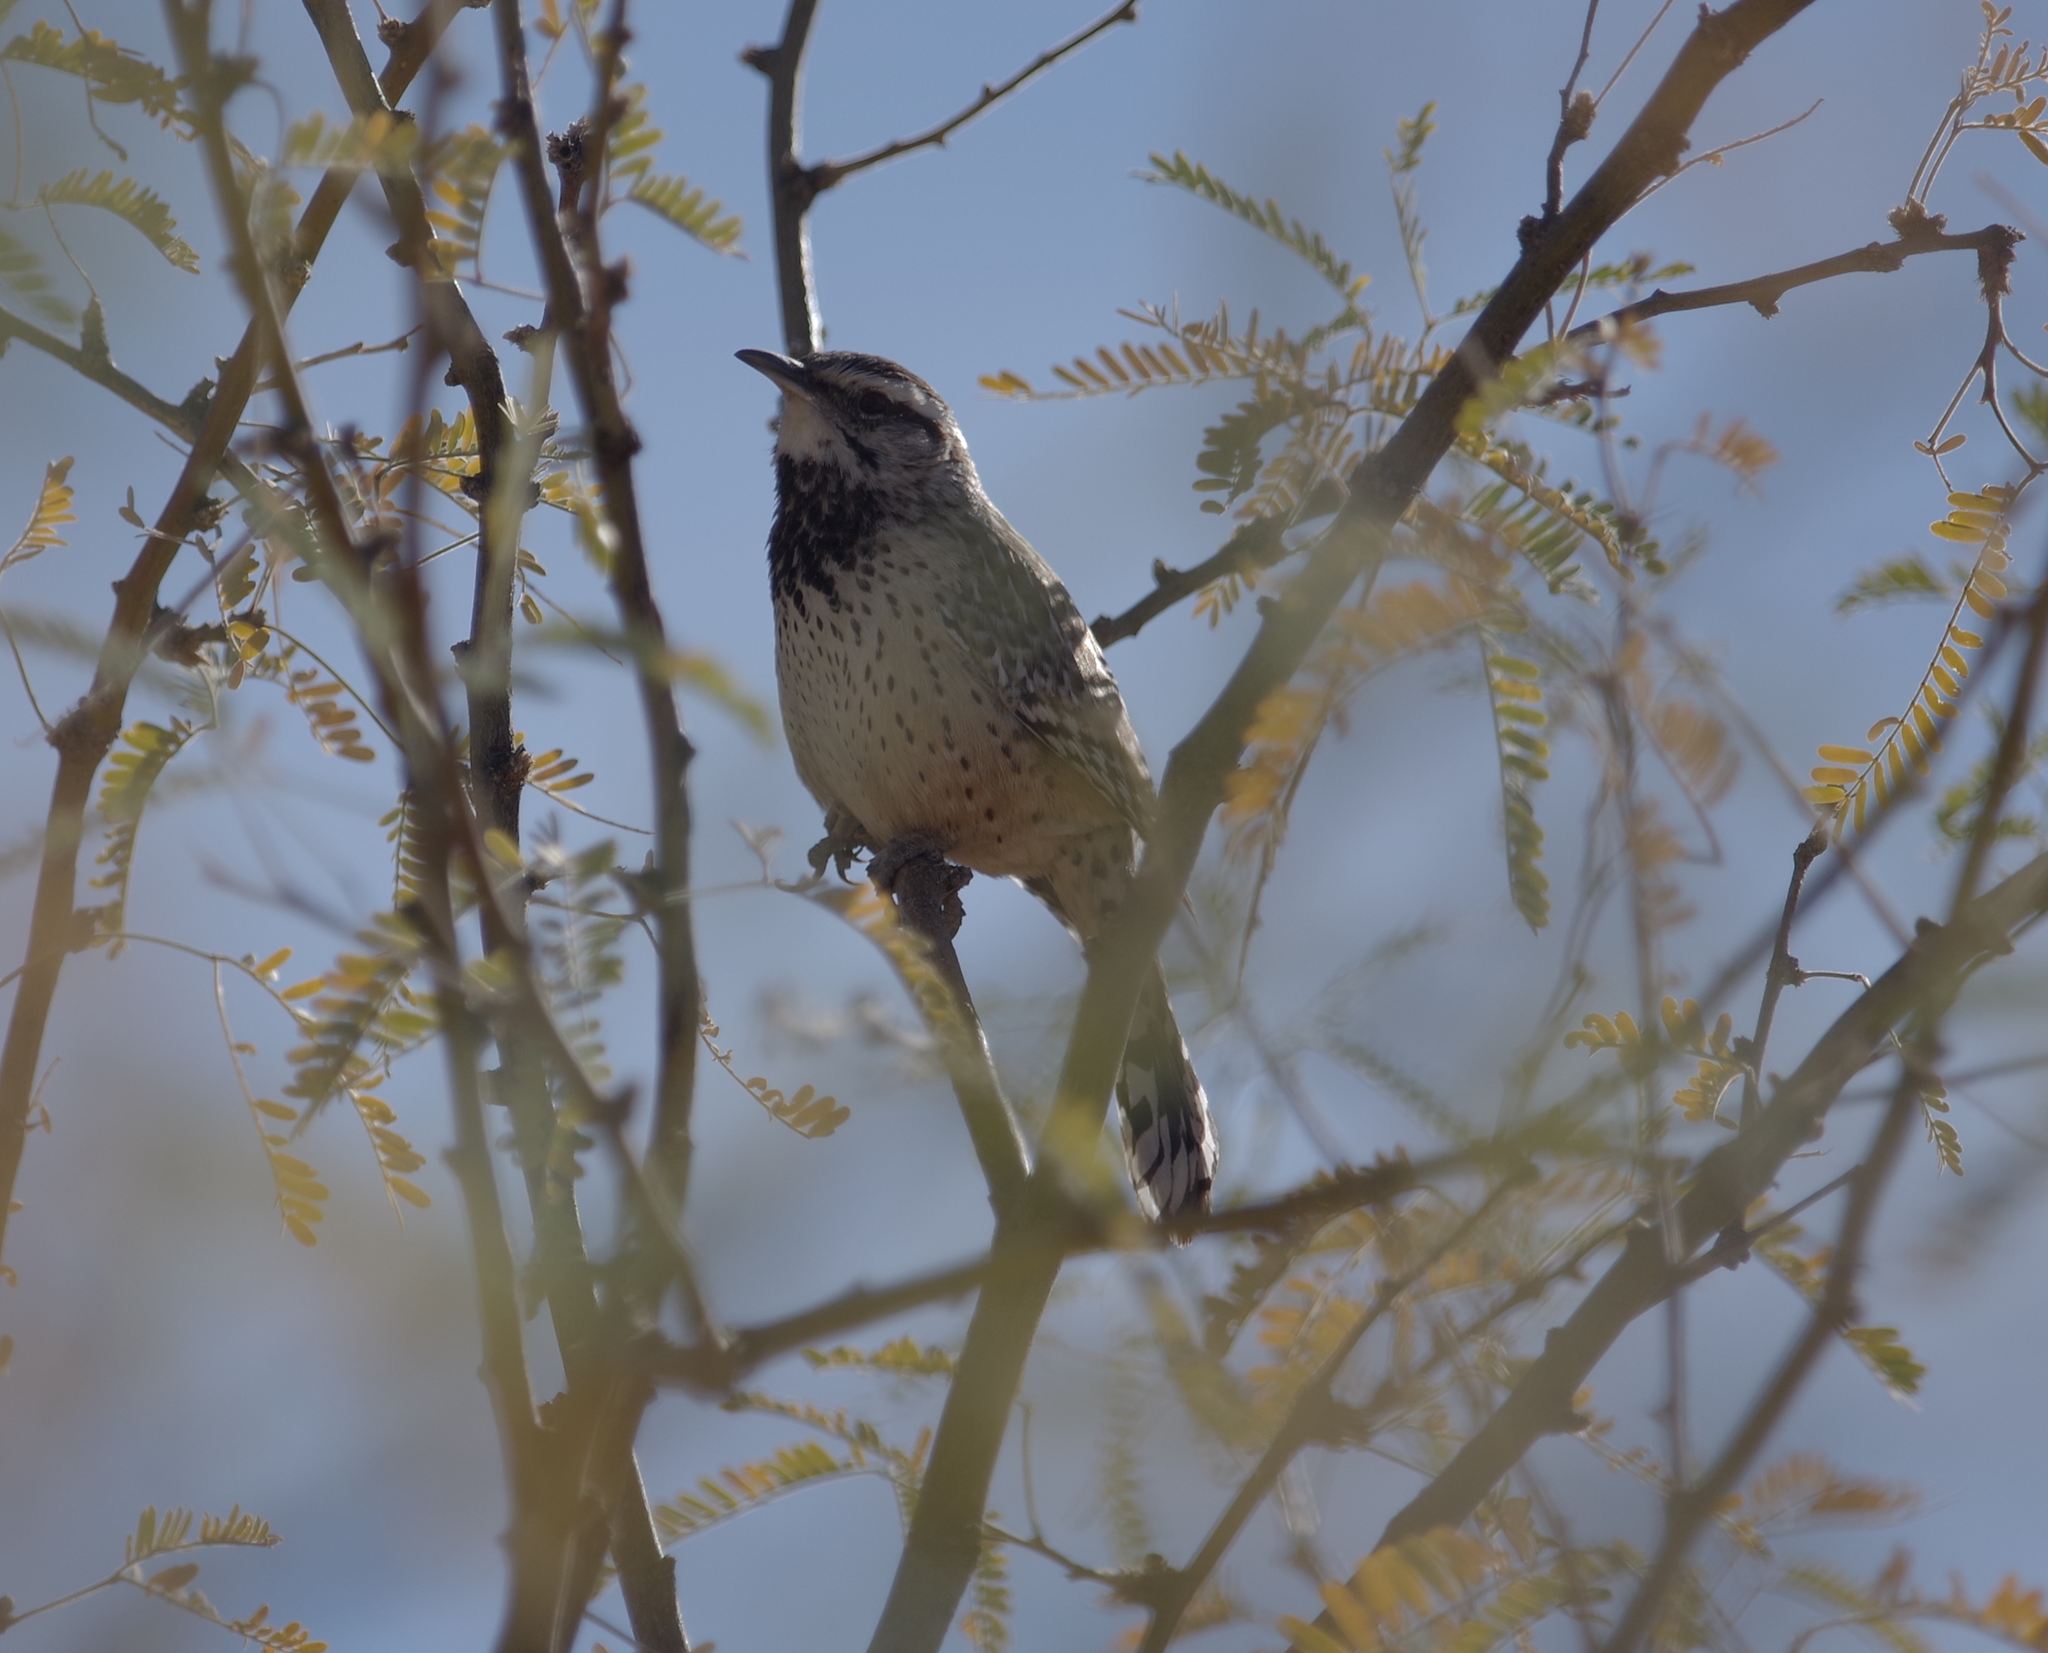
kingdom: Animalia
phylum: Chordata
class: Aves
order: Passeriformes
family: Troglodytidae
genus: Campylorhynchus
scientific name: Campylorhynchus brunneicapillus
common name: Cactus wren
